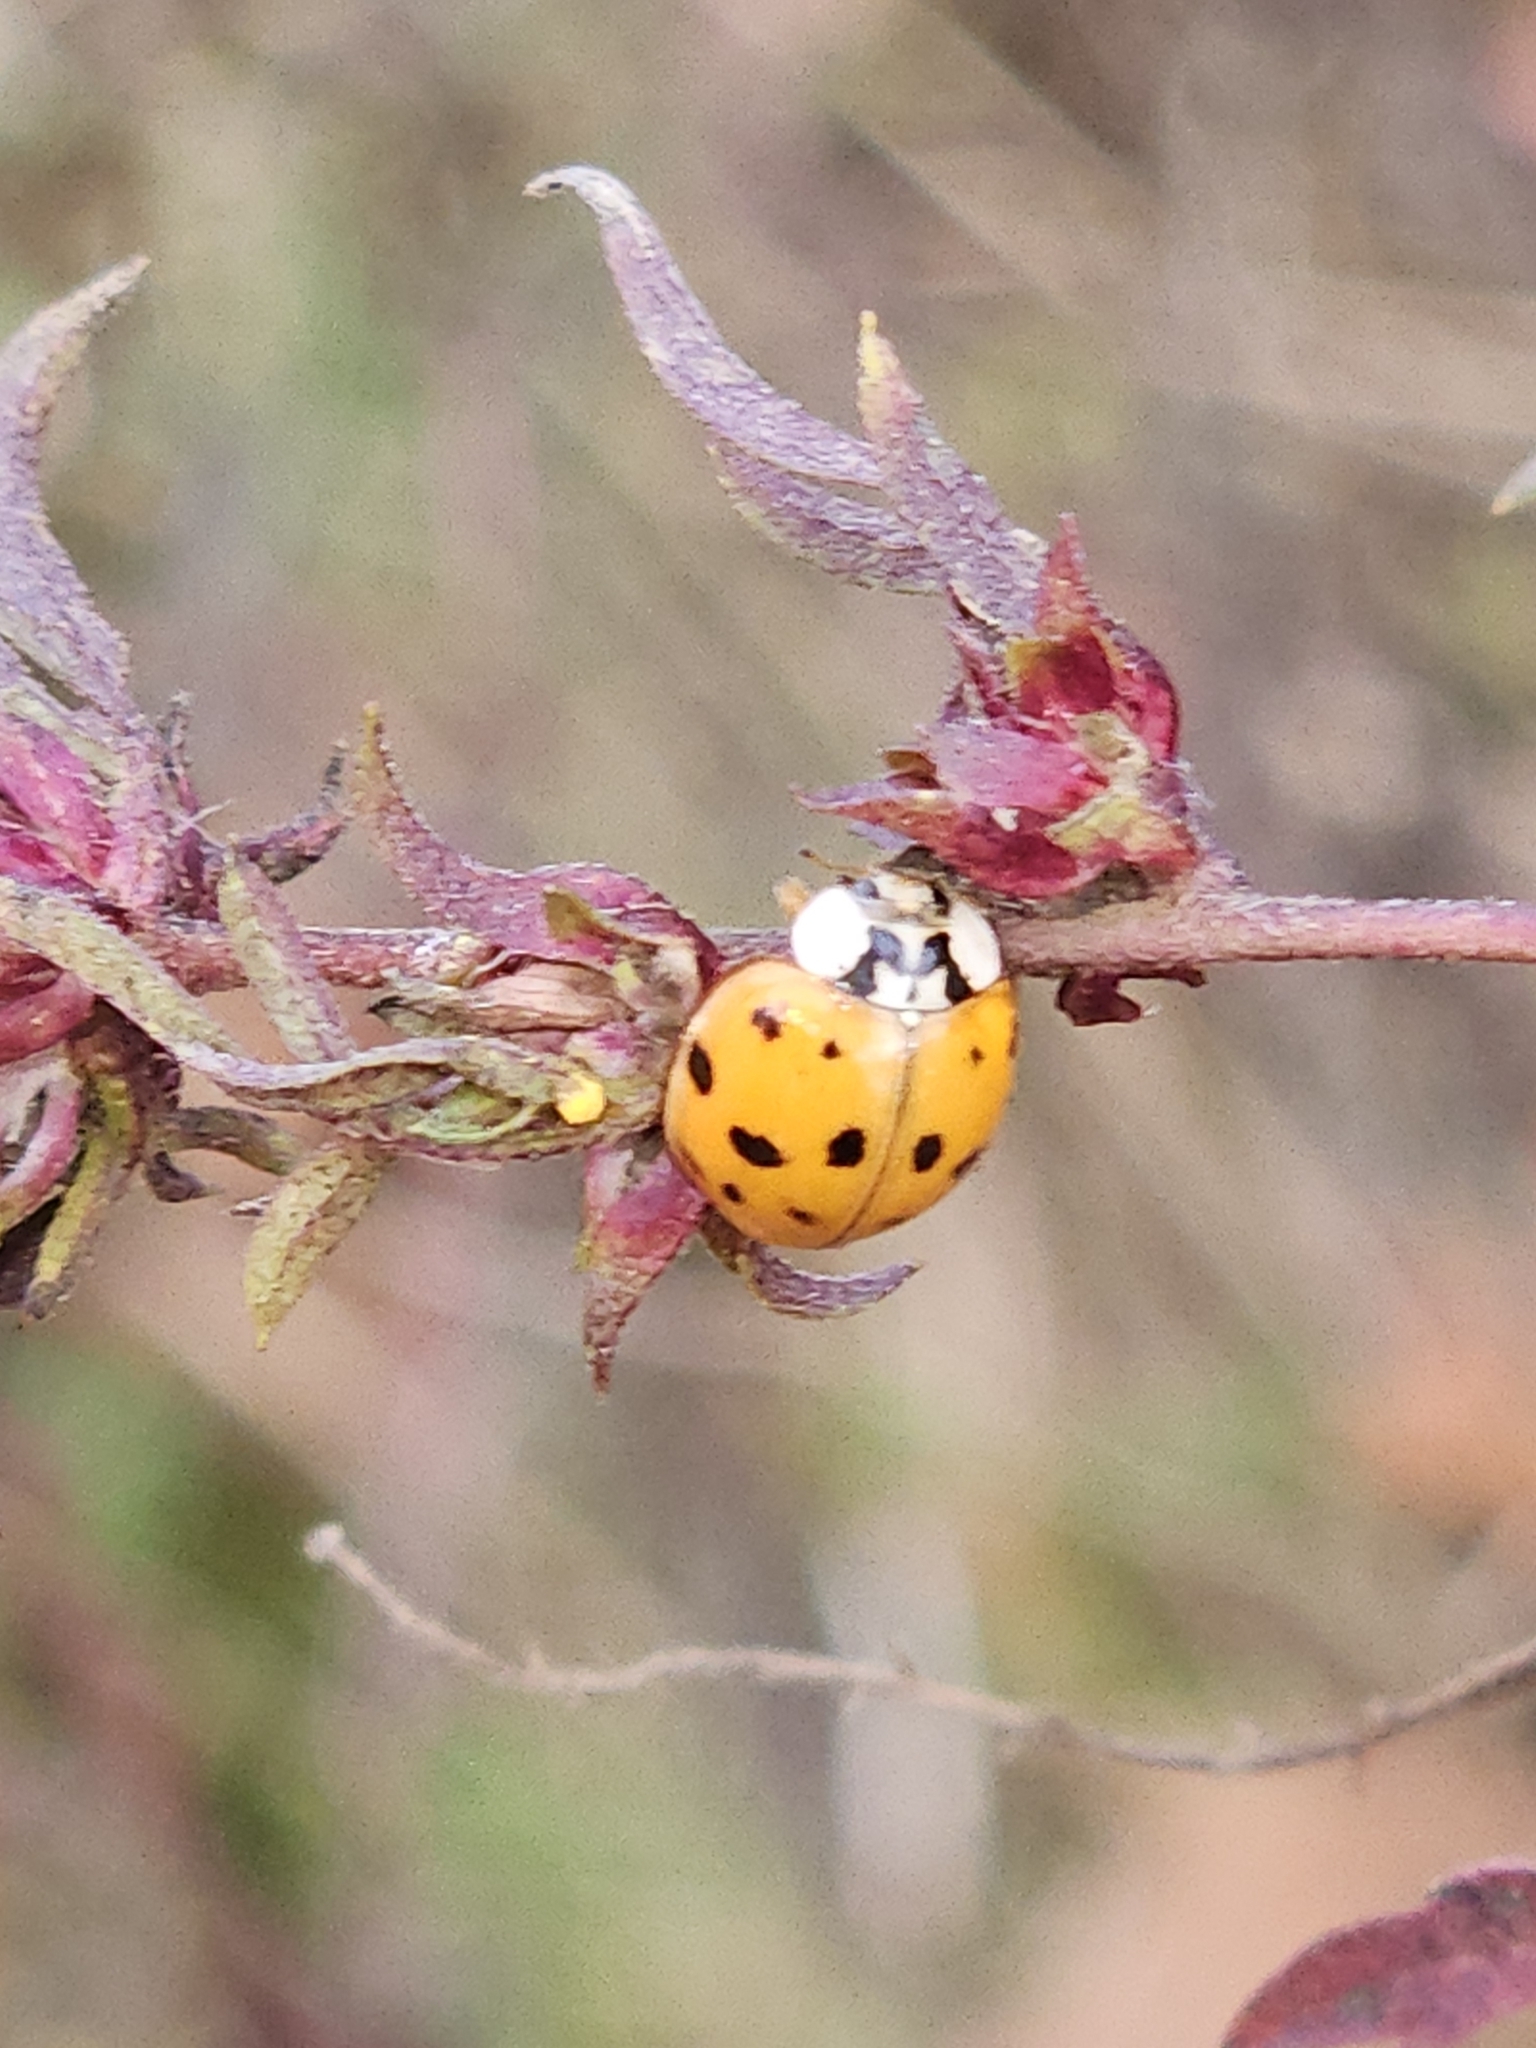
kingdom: Animalia
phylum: Arthropoda
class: Insecta
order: Coleoptera
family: Coccinellidae
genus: Harmonia
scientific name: Harmonia axyridis
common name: Harlequin ladybird
